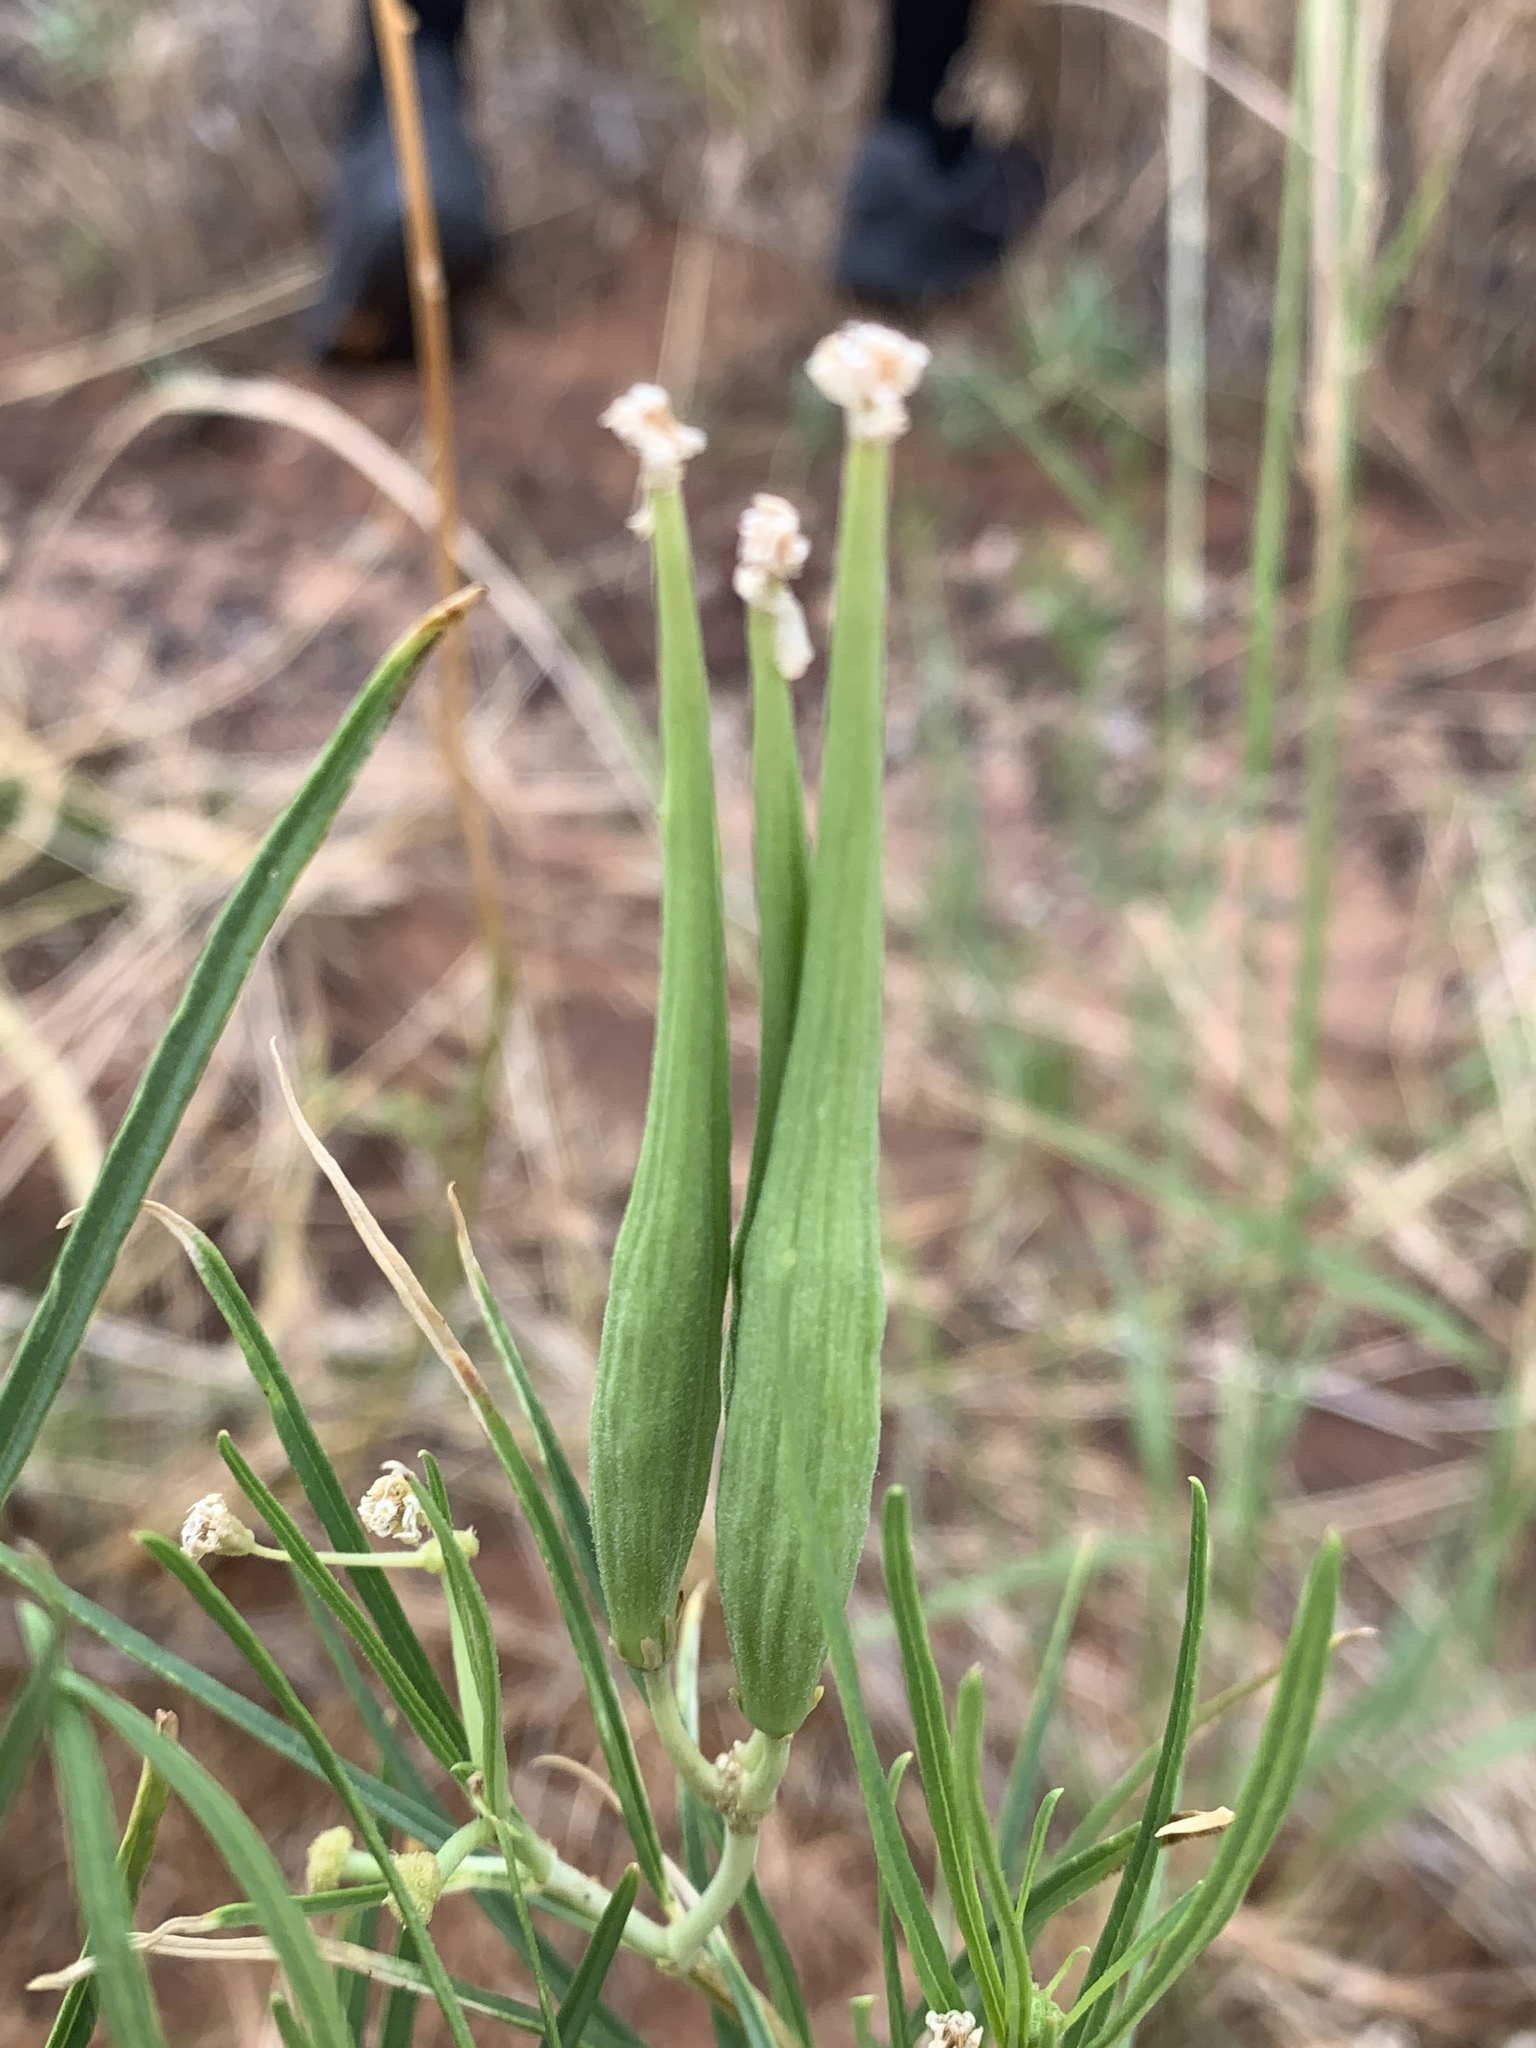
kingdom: Plantae
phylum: Tracheophyta
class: Magnoliopsida
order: Gentianales
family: Apocynaceae
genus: Asclepias
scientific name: Asclepias subverticillata
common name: Horsetail milkweed
